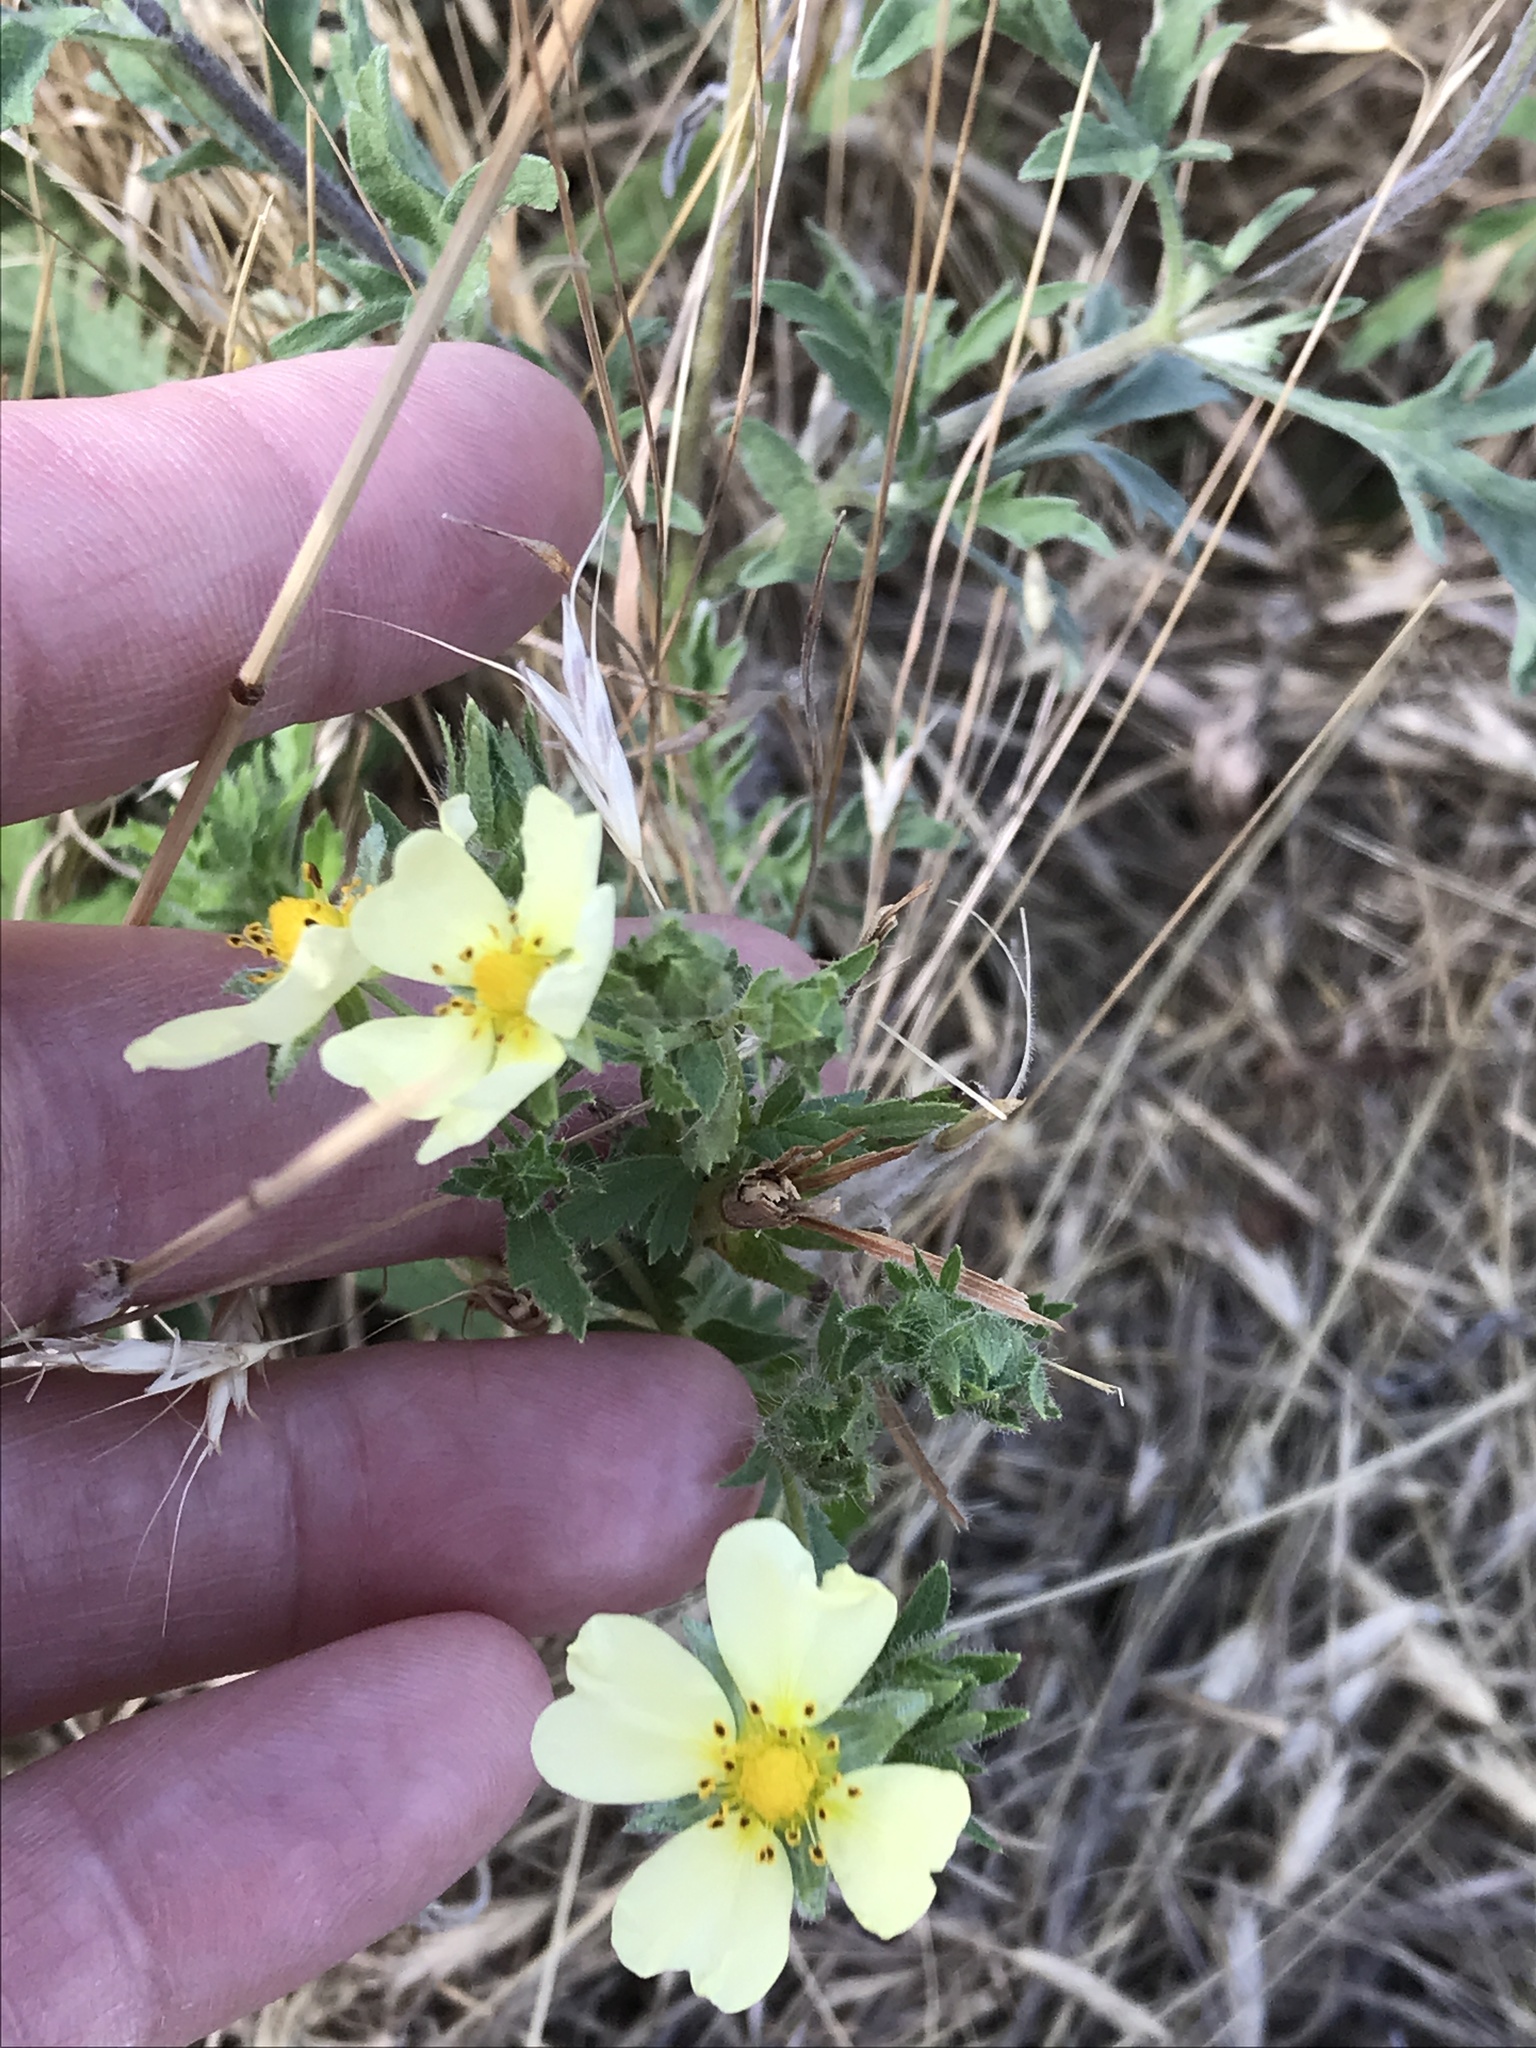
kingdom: Plantae
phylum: Tracheophyta
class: Magnoliopsida
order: Rosales
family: Rosaceae
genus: Potentilla
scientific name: Potentilla recta
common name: Sulphur cinquefoil
